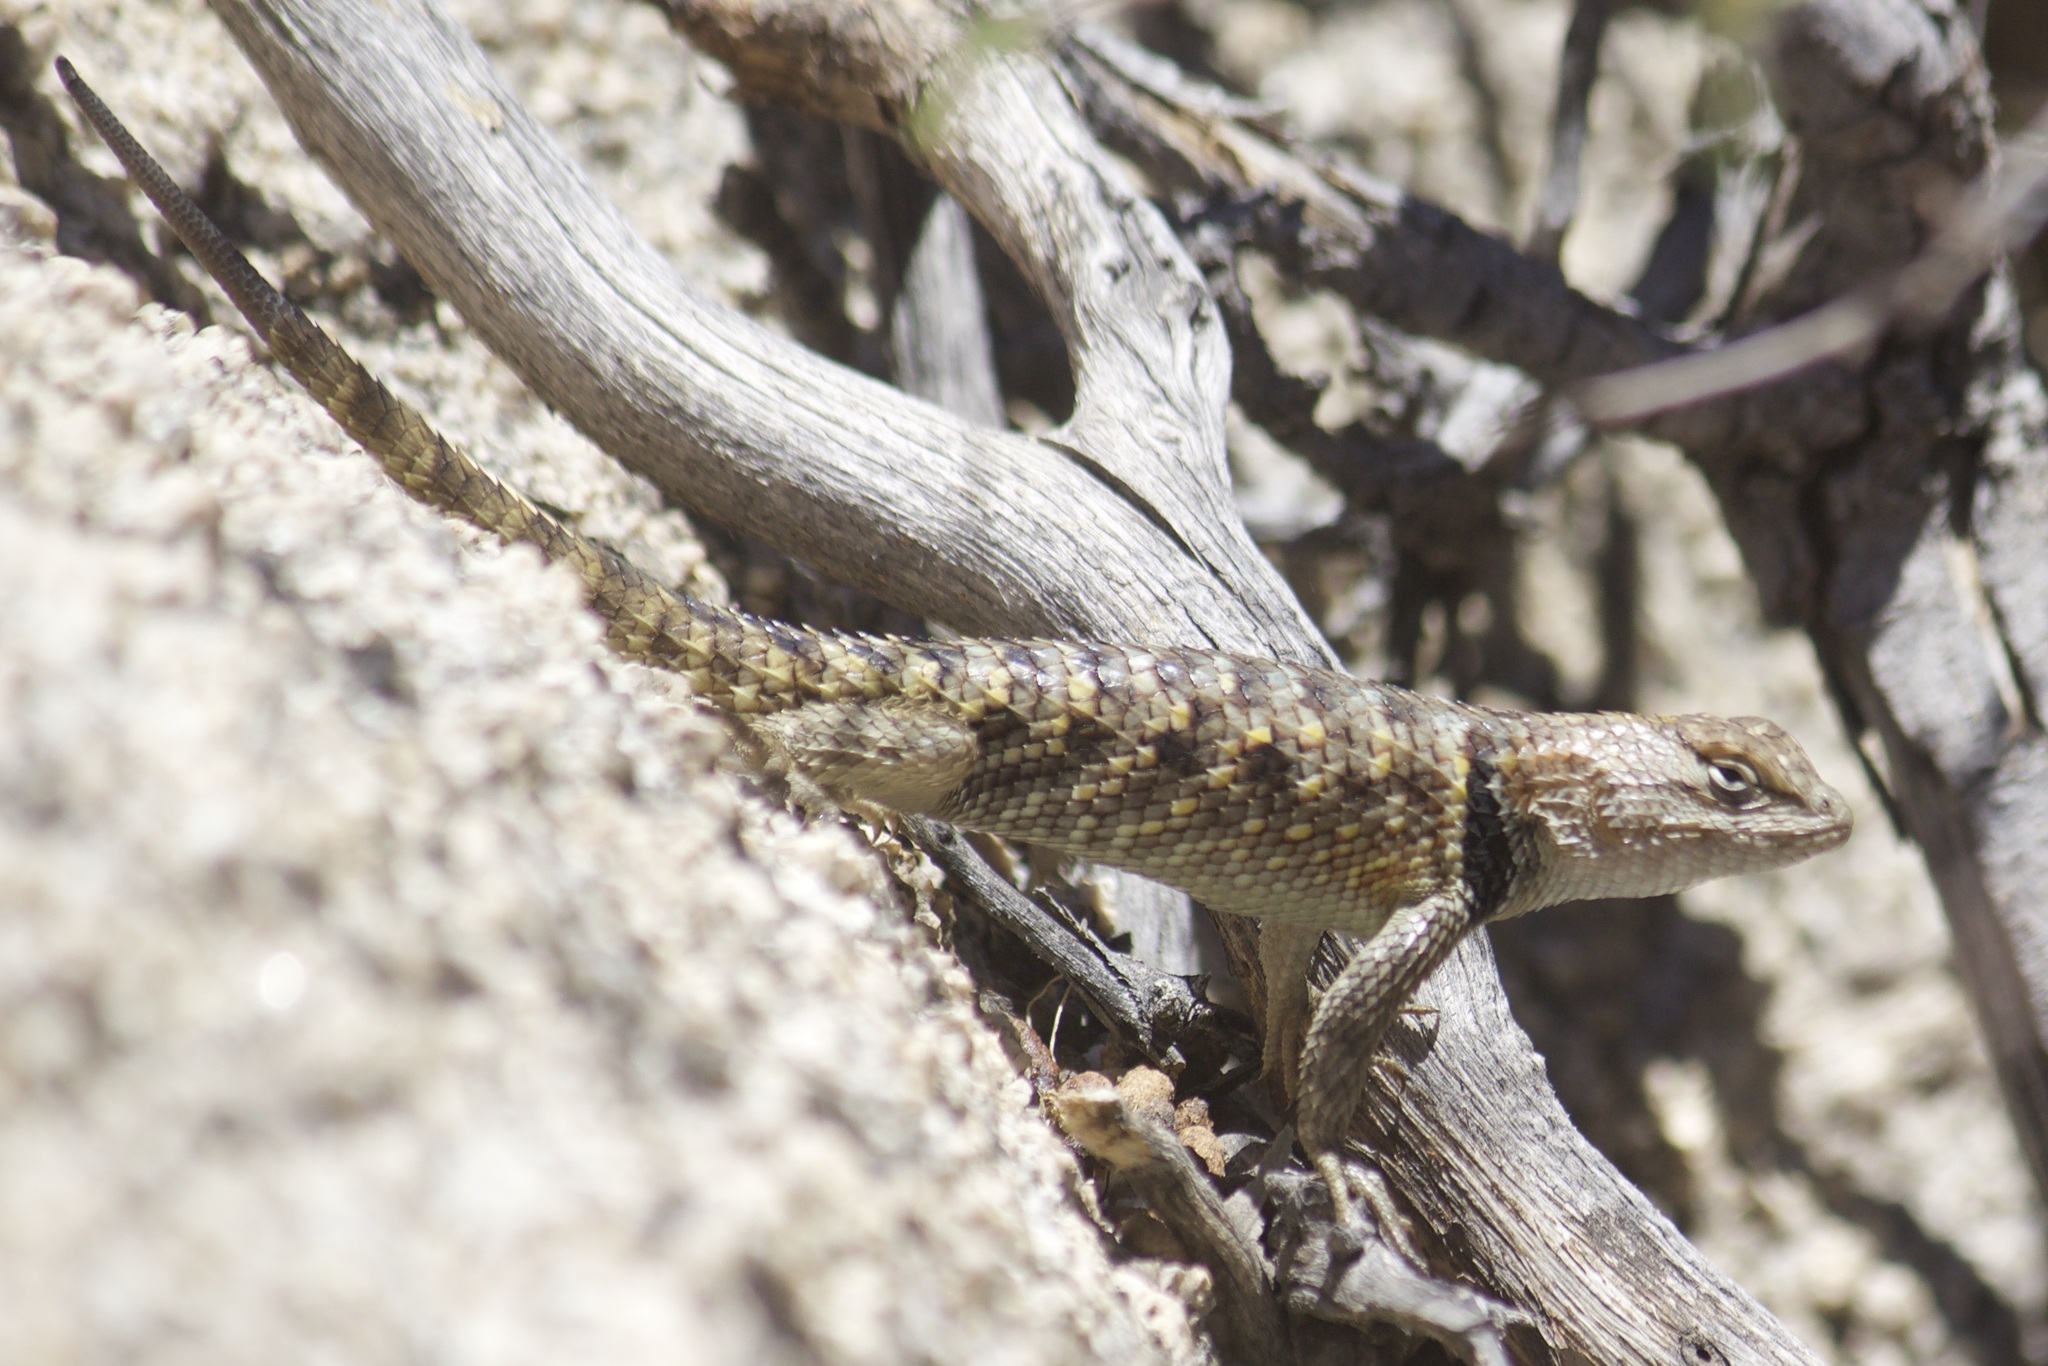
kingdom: Animalia
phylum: Chordata
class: Squamata
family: Phrynosomatidae
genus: Sceloporus
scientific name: Sceloporus magister
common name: Desert spiny lizard
